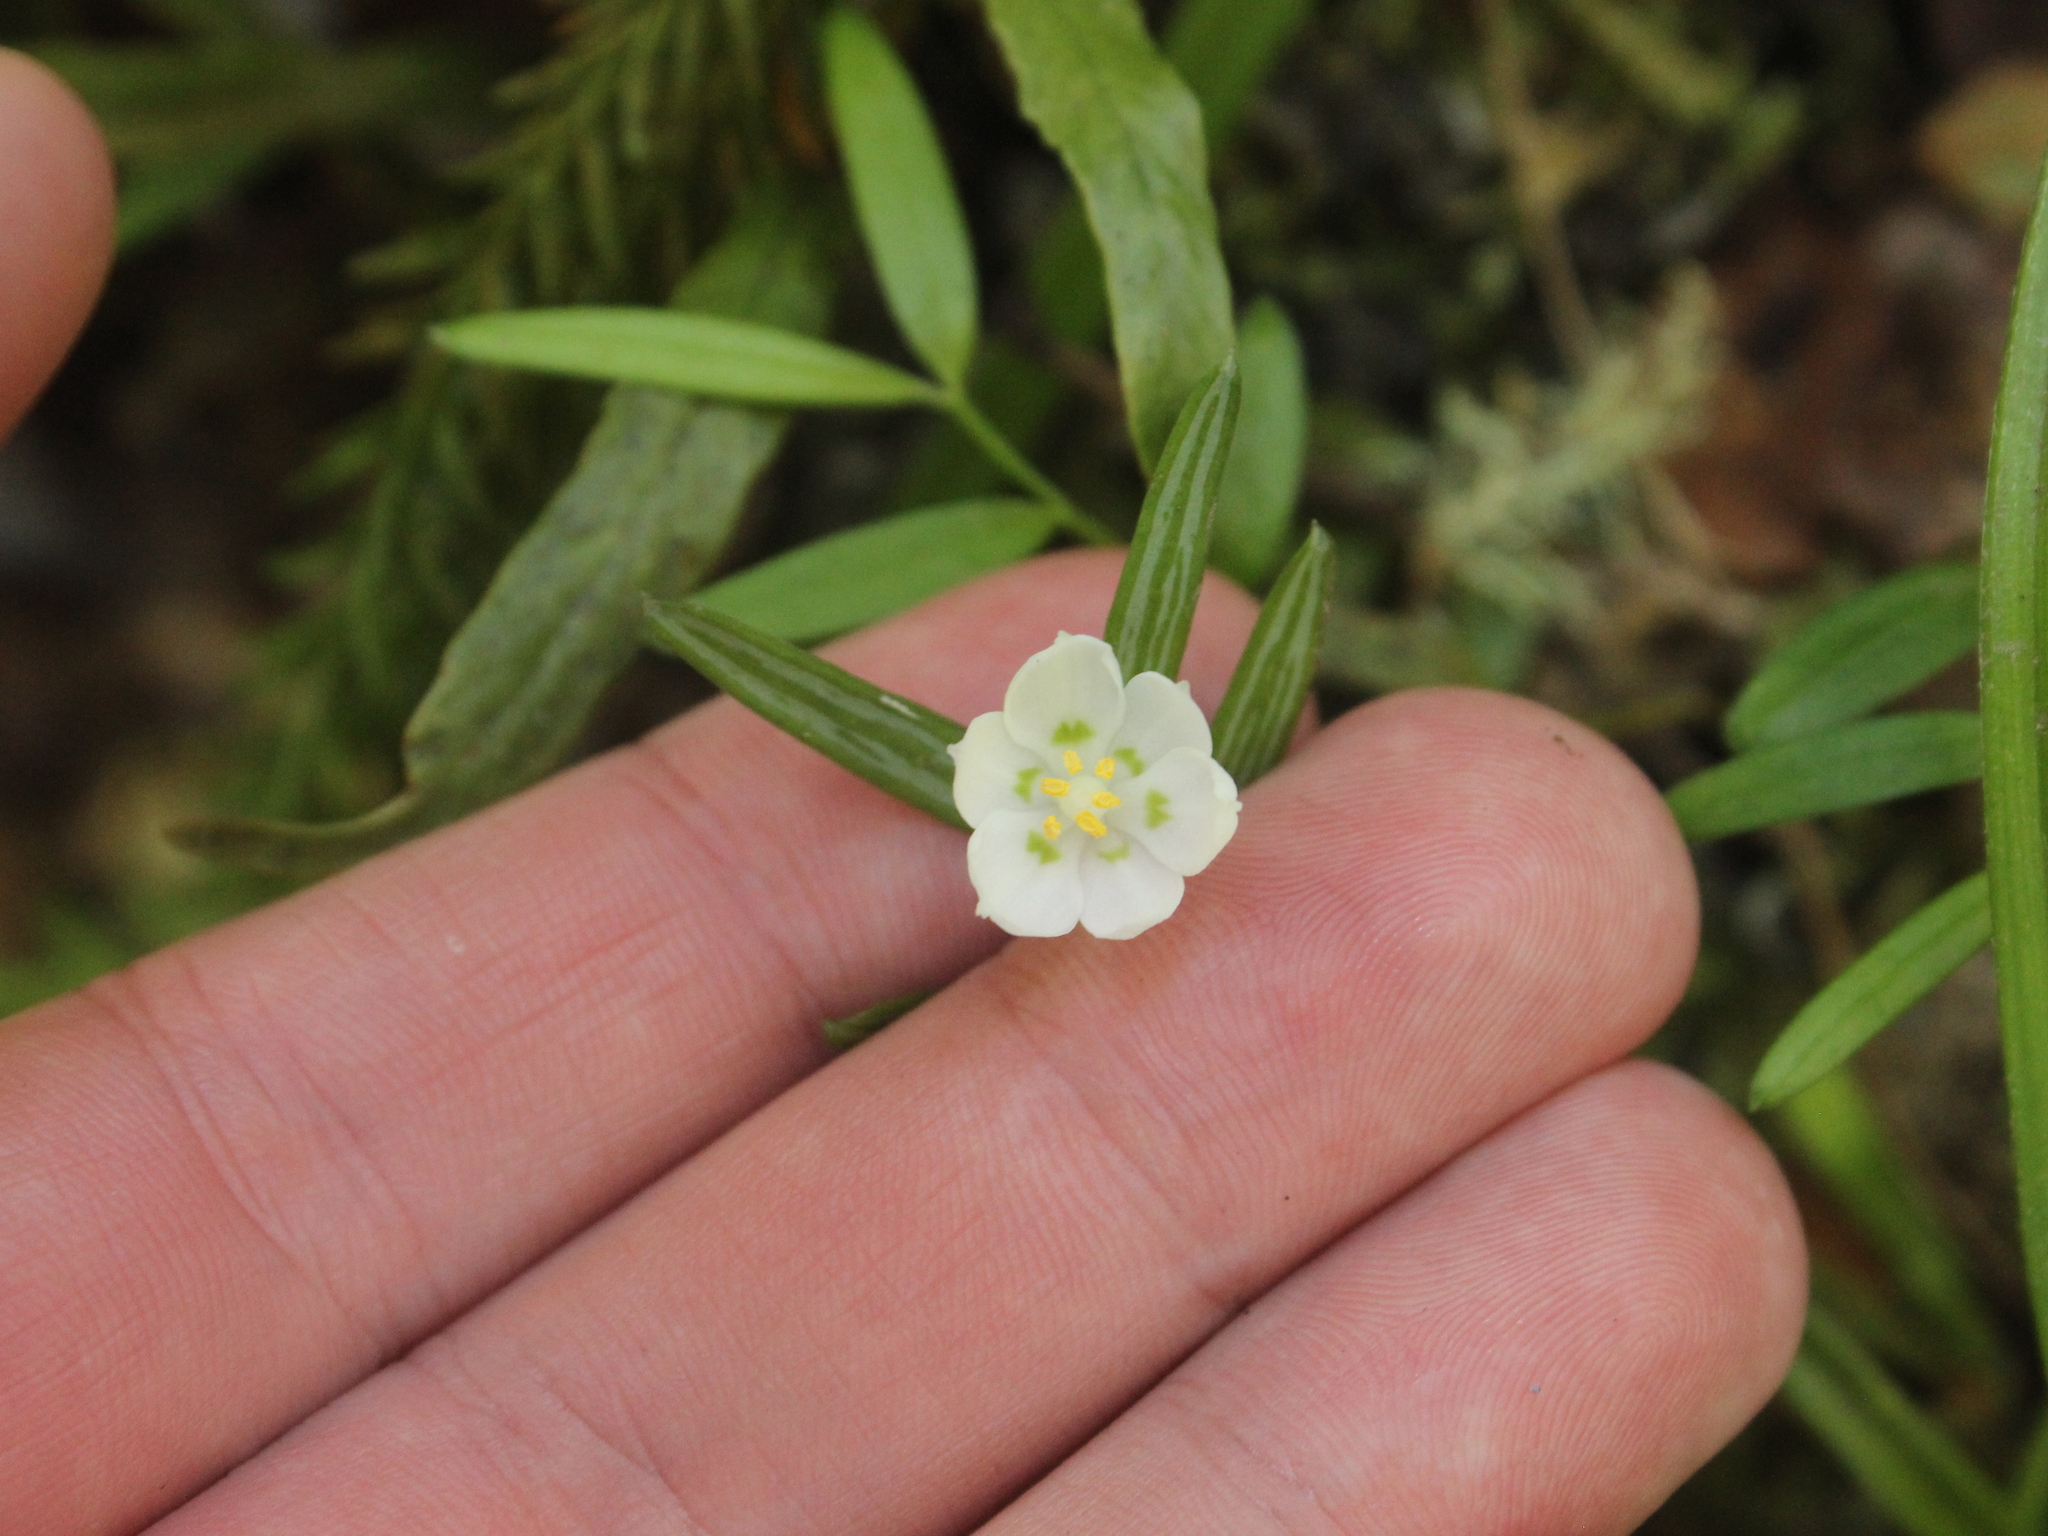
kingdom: Plantae
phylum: Tracheophyta
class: Liliopsida
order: Liliales
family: Alstroemeriaceae
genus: Luzuriaga
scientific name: Luzuriaga parviflora
